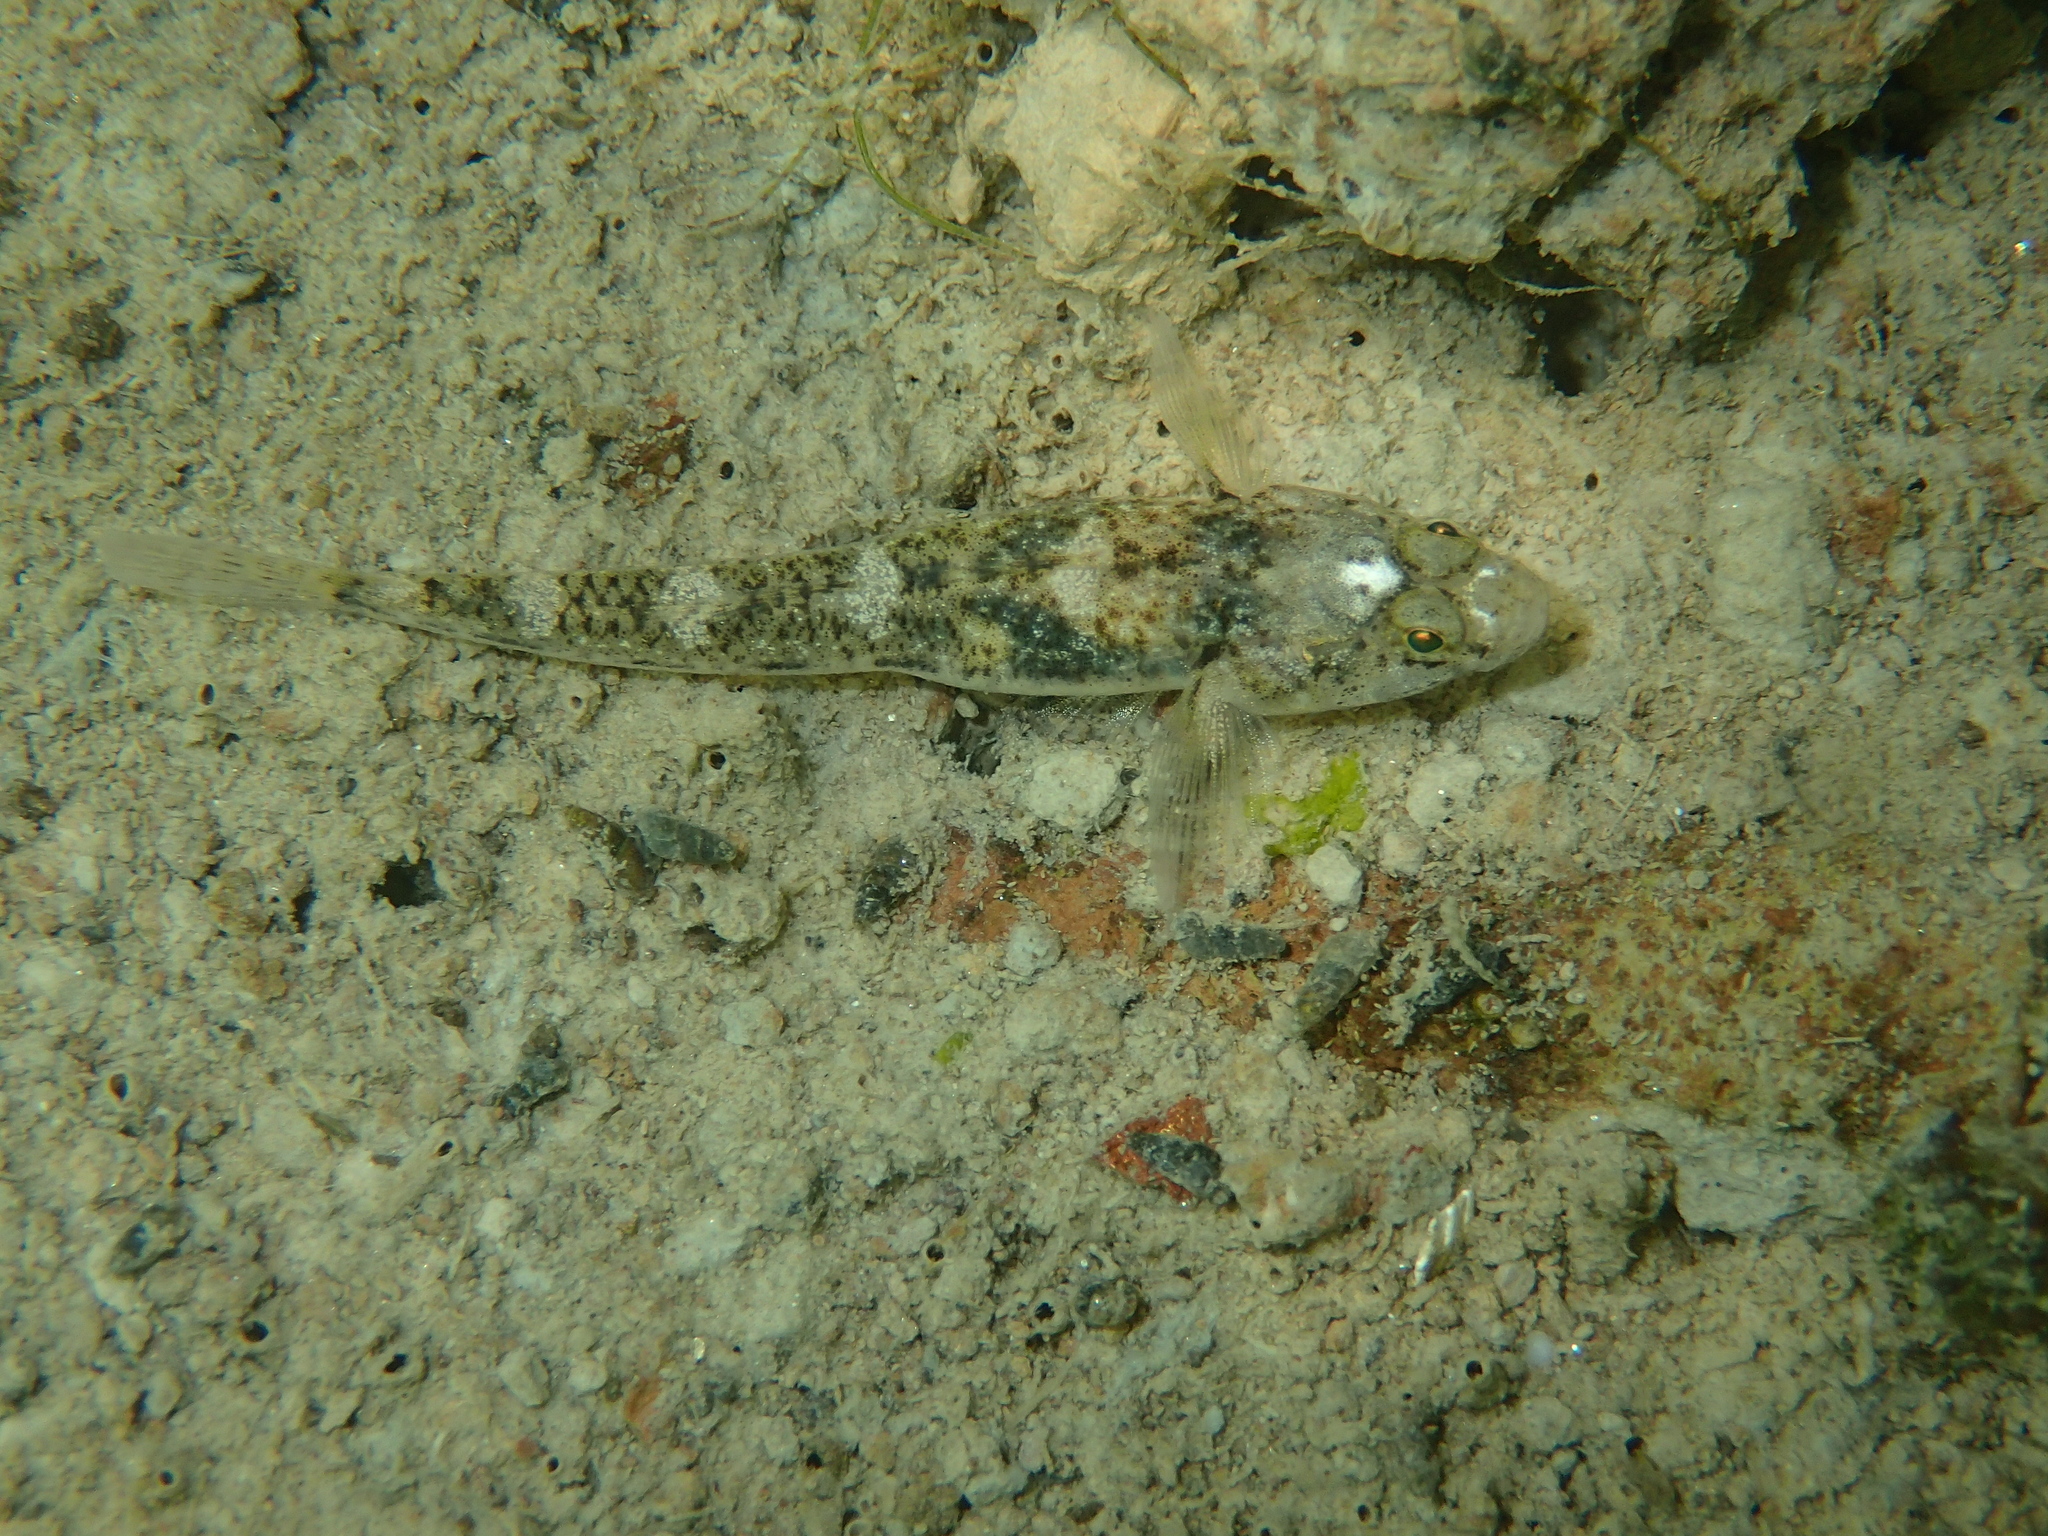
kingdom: Animalia
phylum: Chordata
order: Perciformes
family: Gobiidae
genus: Pomatoschistus
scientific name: Pomatoschistus microps
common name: Common goby
